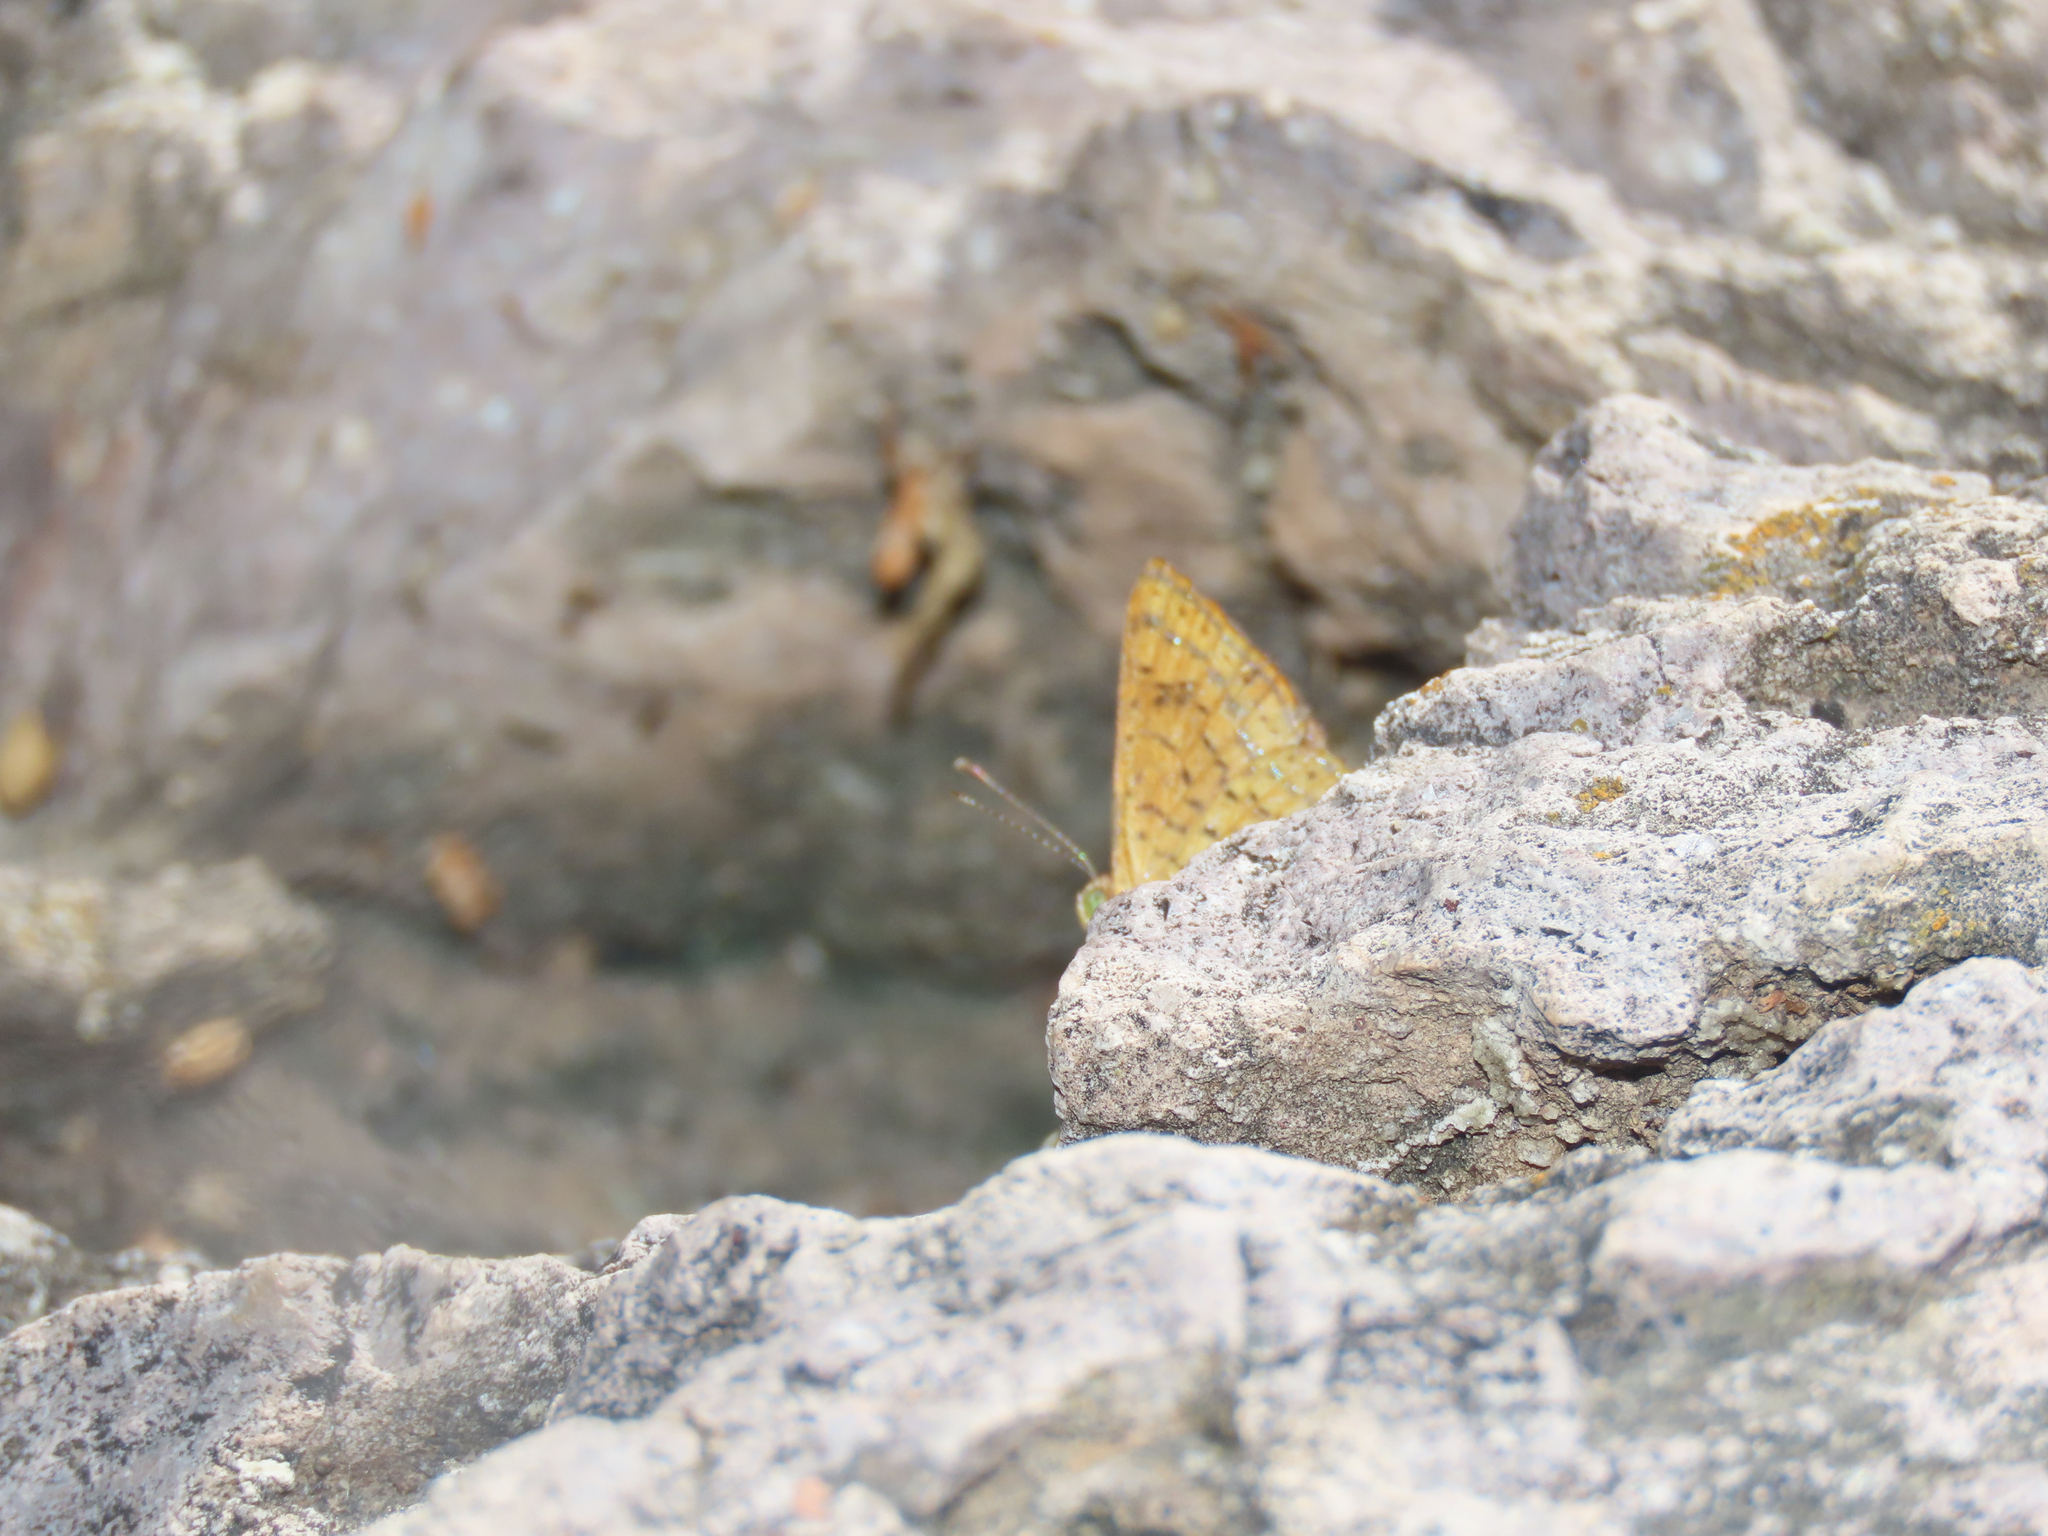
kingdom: Animalia
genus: Calephelis
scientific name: Calephelis nemesis
